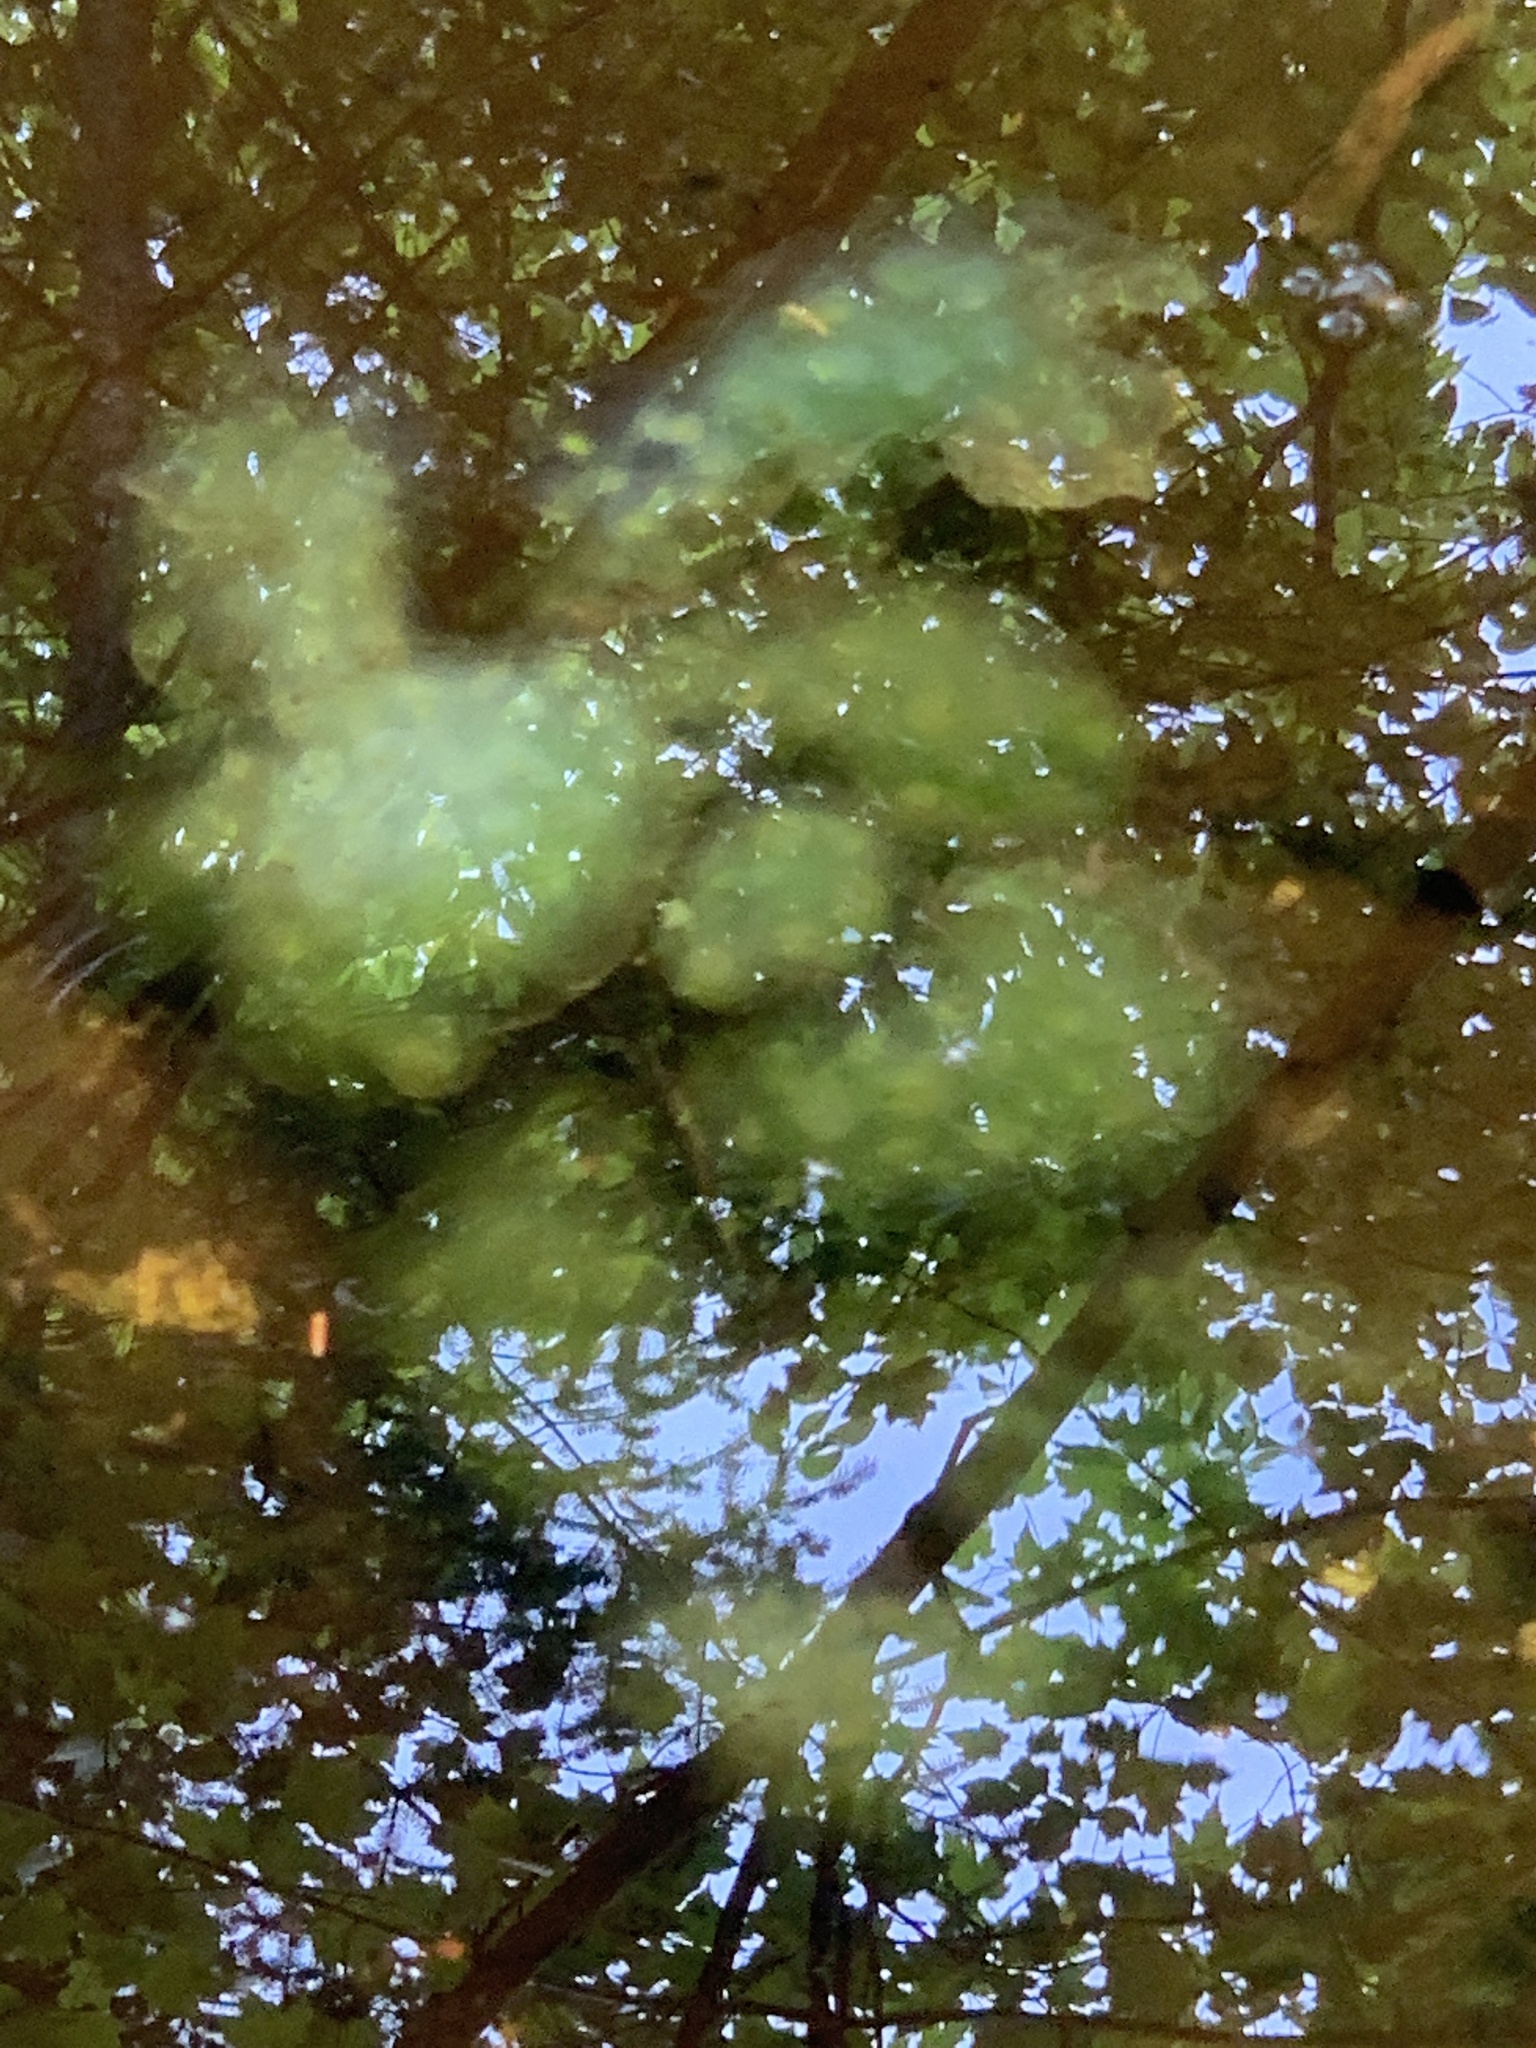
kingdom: Animalia
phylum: Chordata
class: Amphibia
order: Caudata
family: Ambystomatidae
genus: Ambystoma
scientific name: Ambystoma maculatum
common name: Spotted salamander
